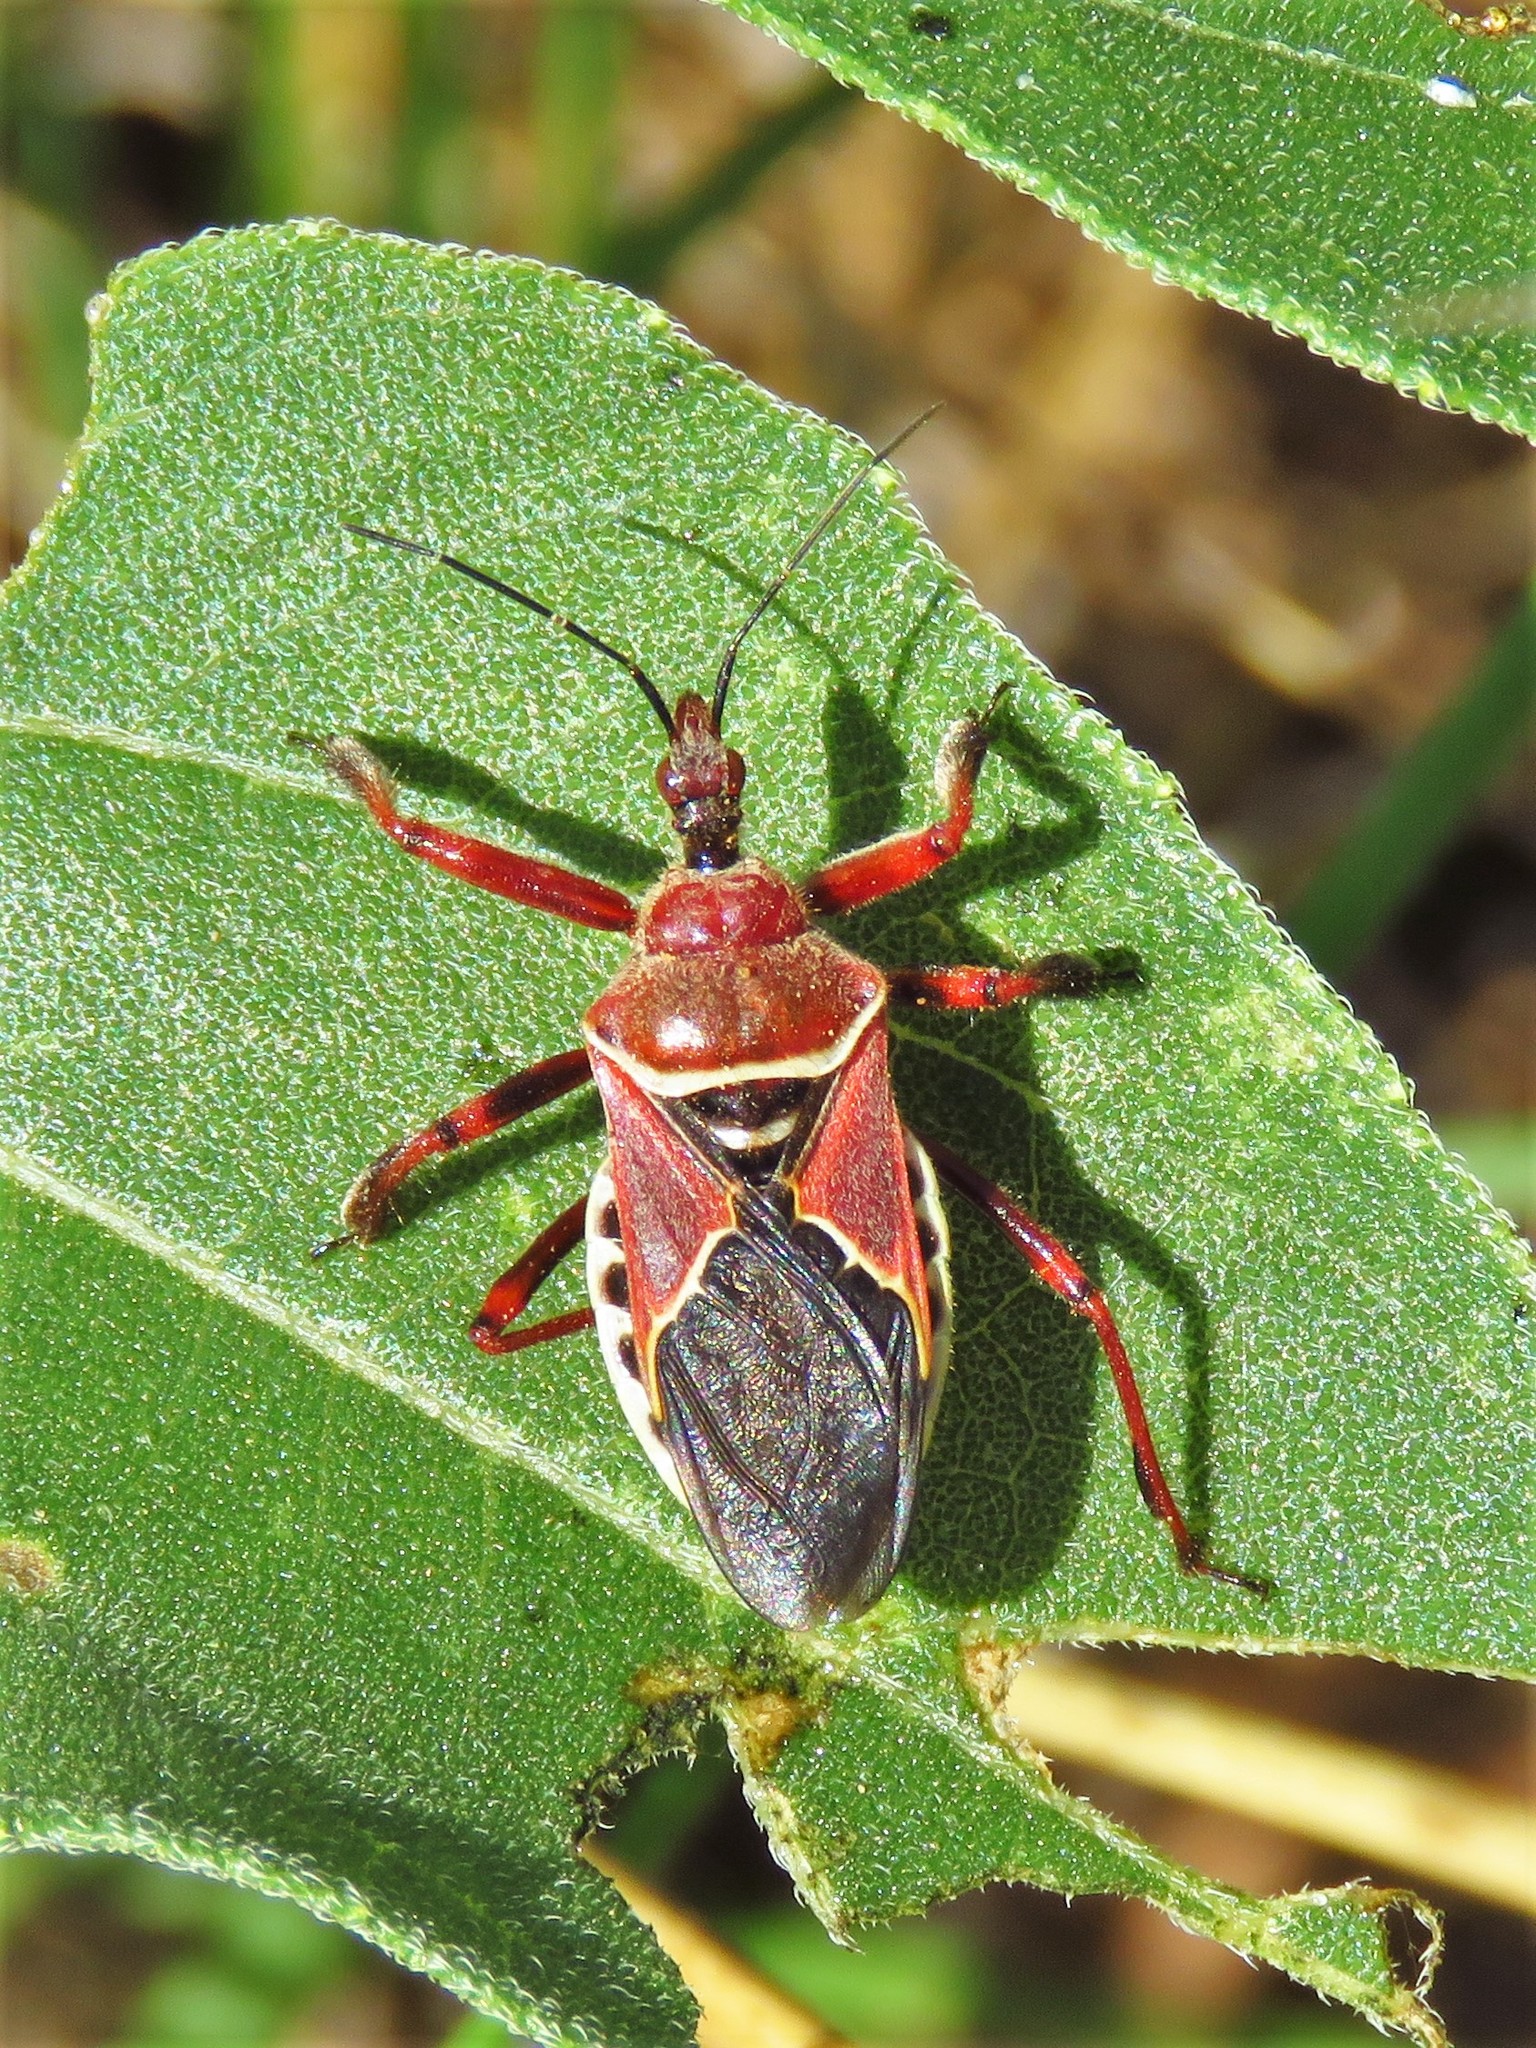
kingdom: Animalia
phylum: Arthropoda
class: Insecta
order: Hemiptera
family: Reduviidae
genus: Apiomerus
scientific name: Apiomerus spissipes
